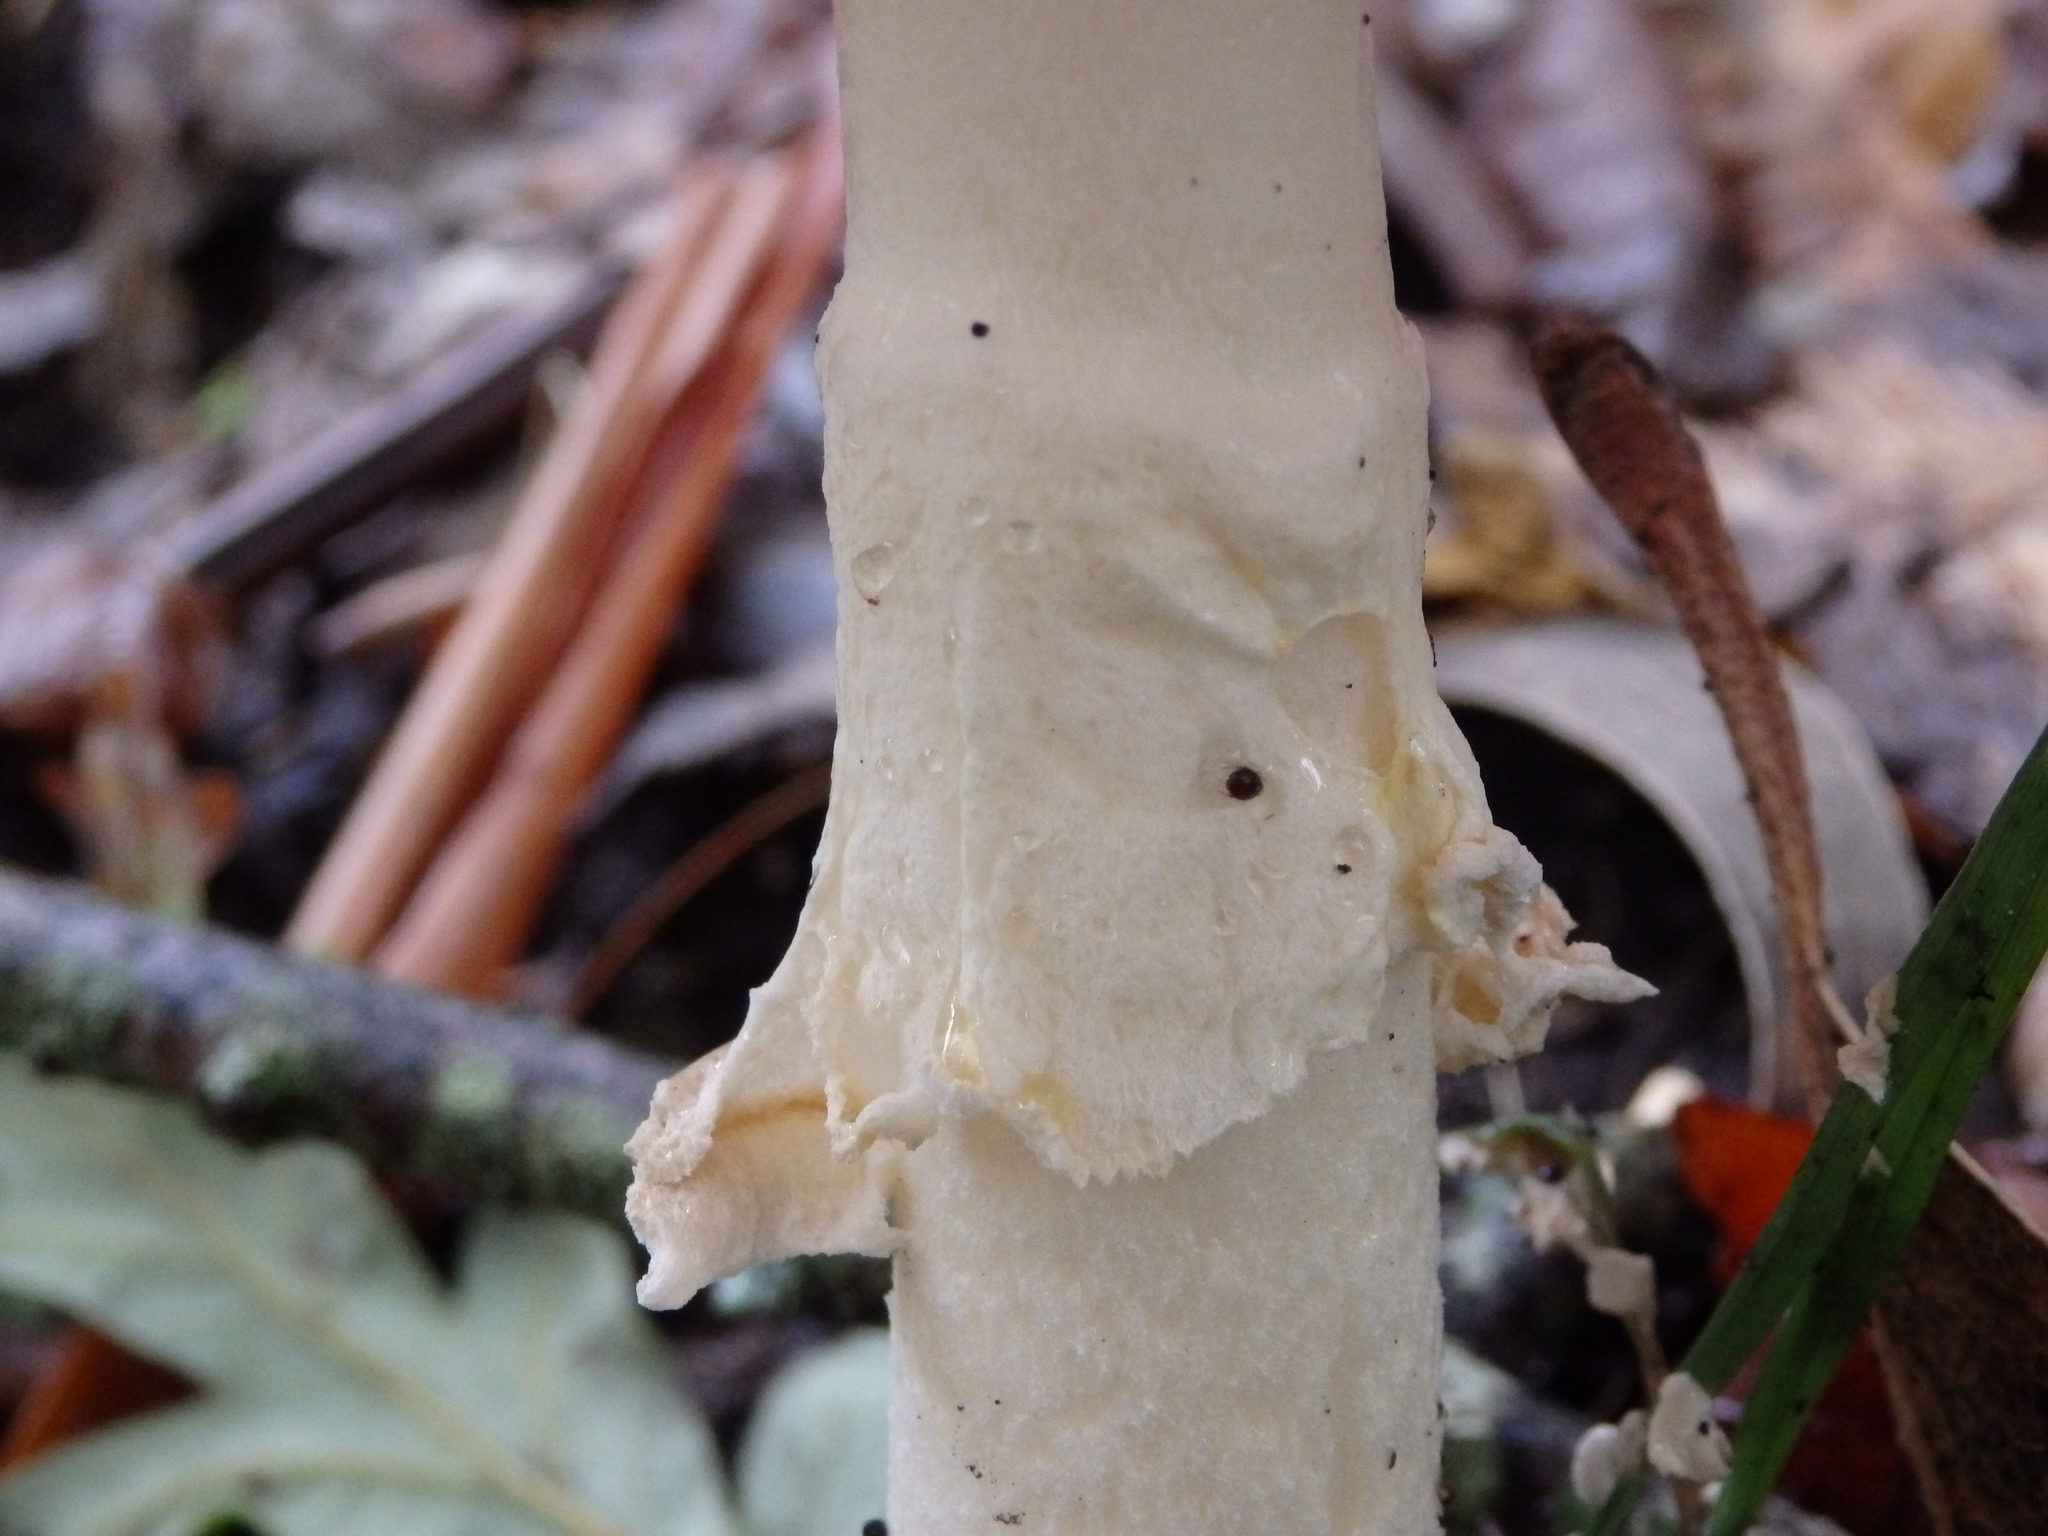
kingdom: Fungi
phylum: Basidiomycota
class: Agaricomycetes
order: Agaricales
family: Amanitaceae
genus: Amanita
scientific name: Amanita muscaria
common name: Fly agaric
